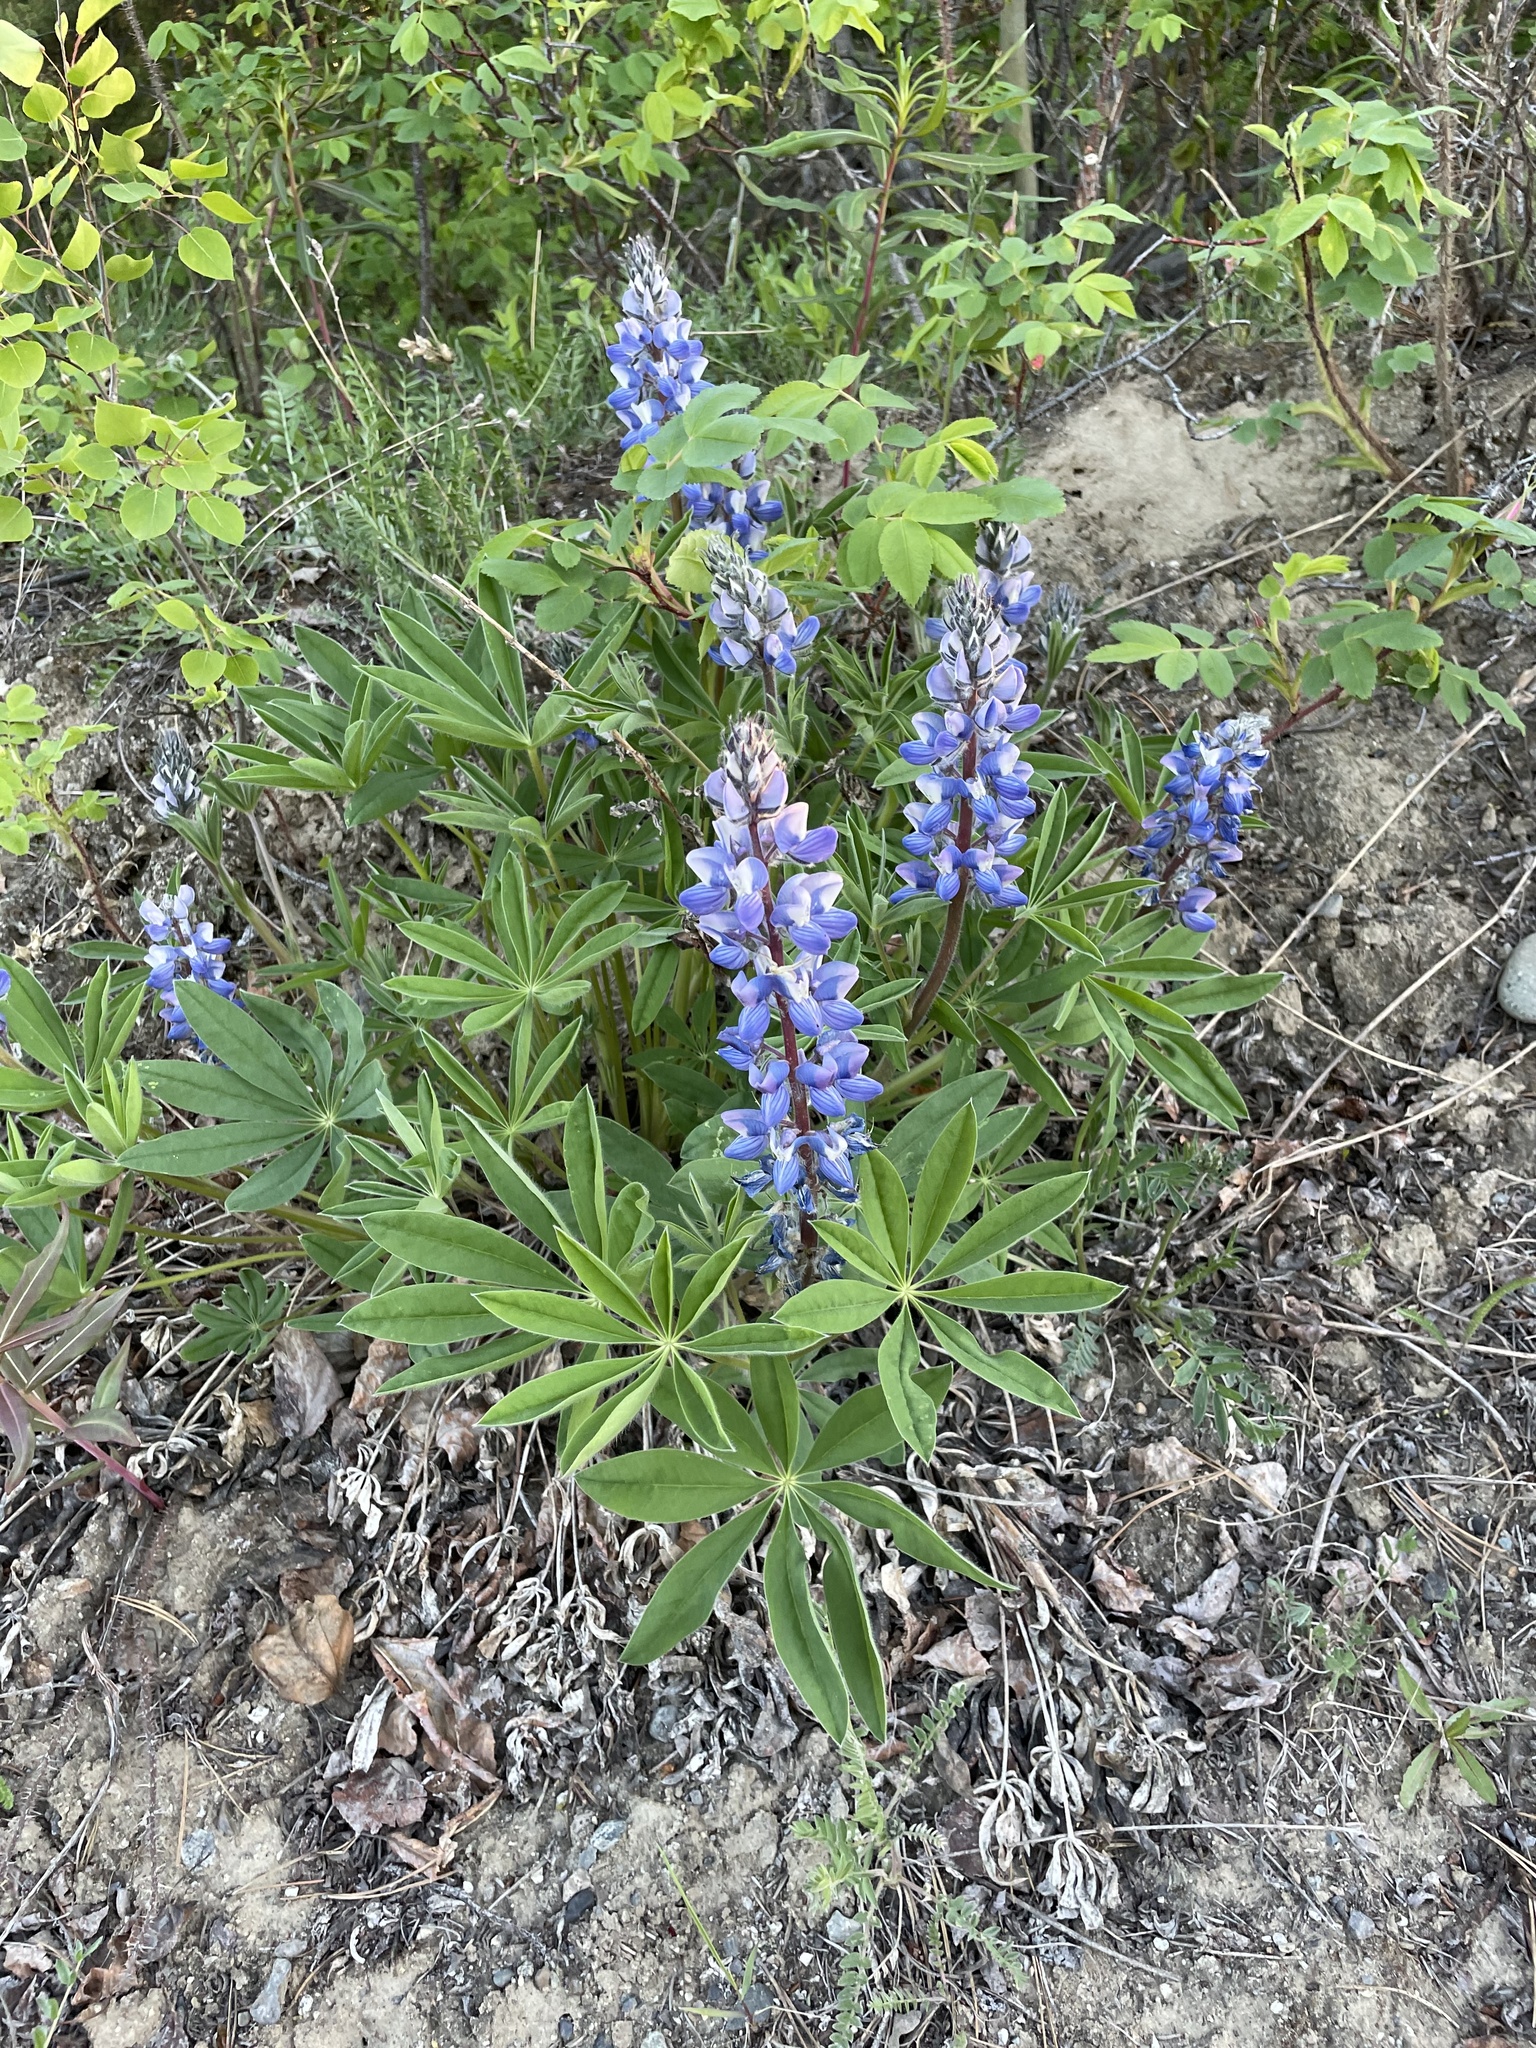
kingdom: Plantae
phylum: Tracheophyta
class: Magnoliopsida
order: Fabales
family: Fabaceae
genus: Lupinus
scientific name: Lupinus arcticus
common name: Arctic lupine
